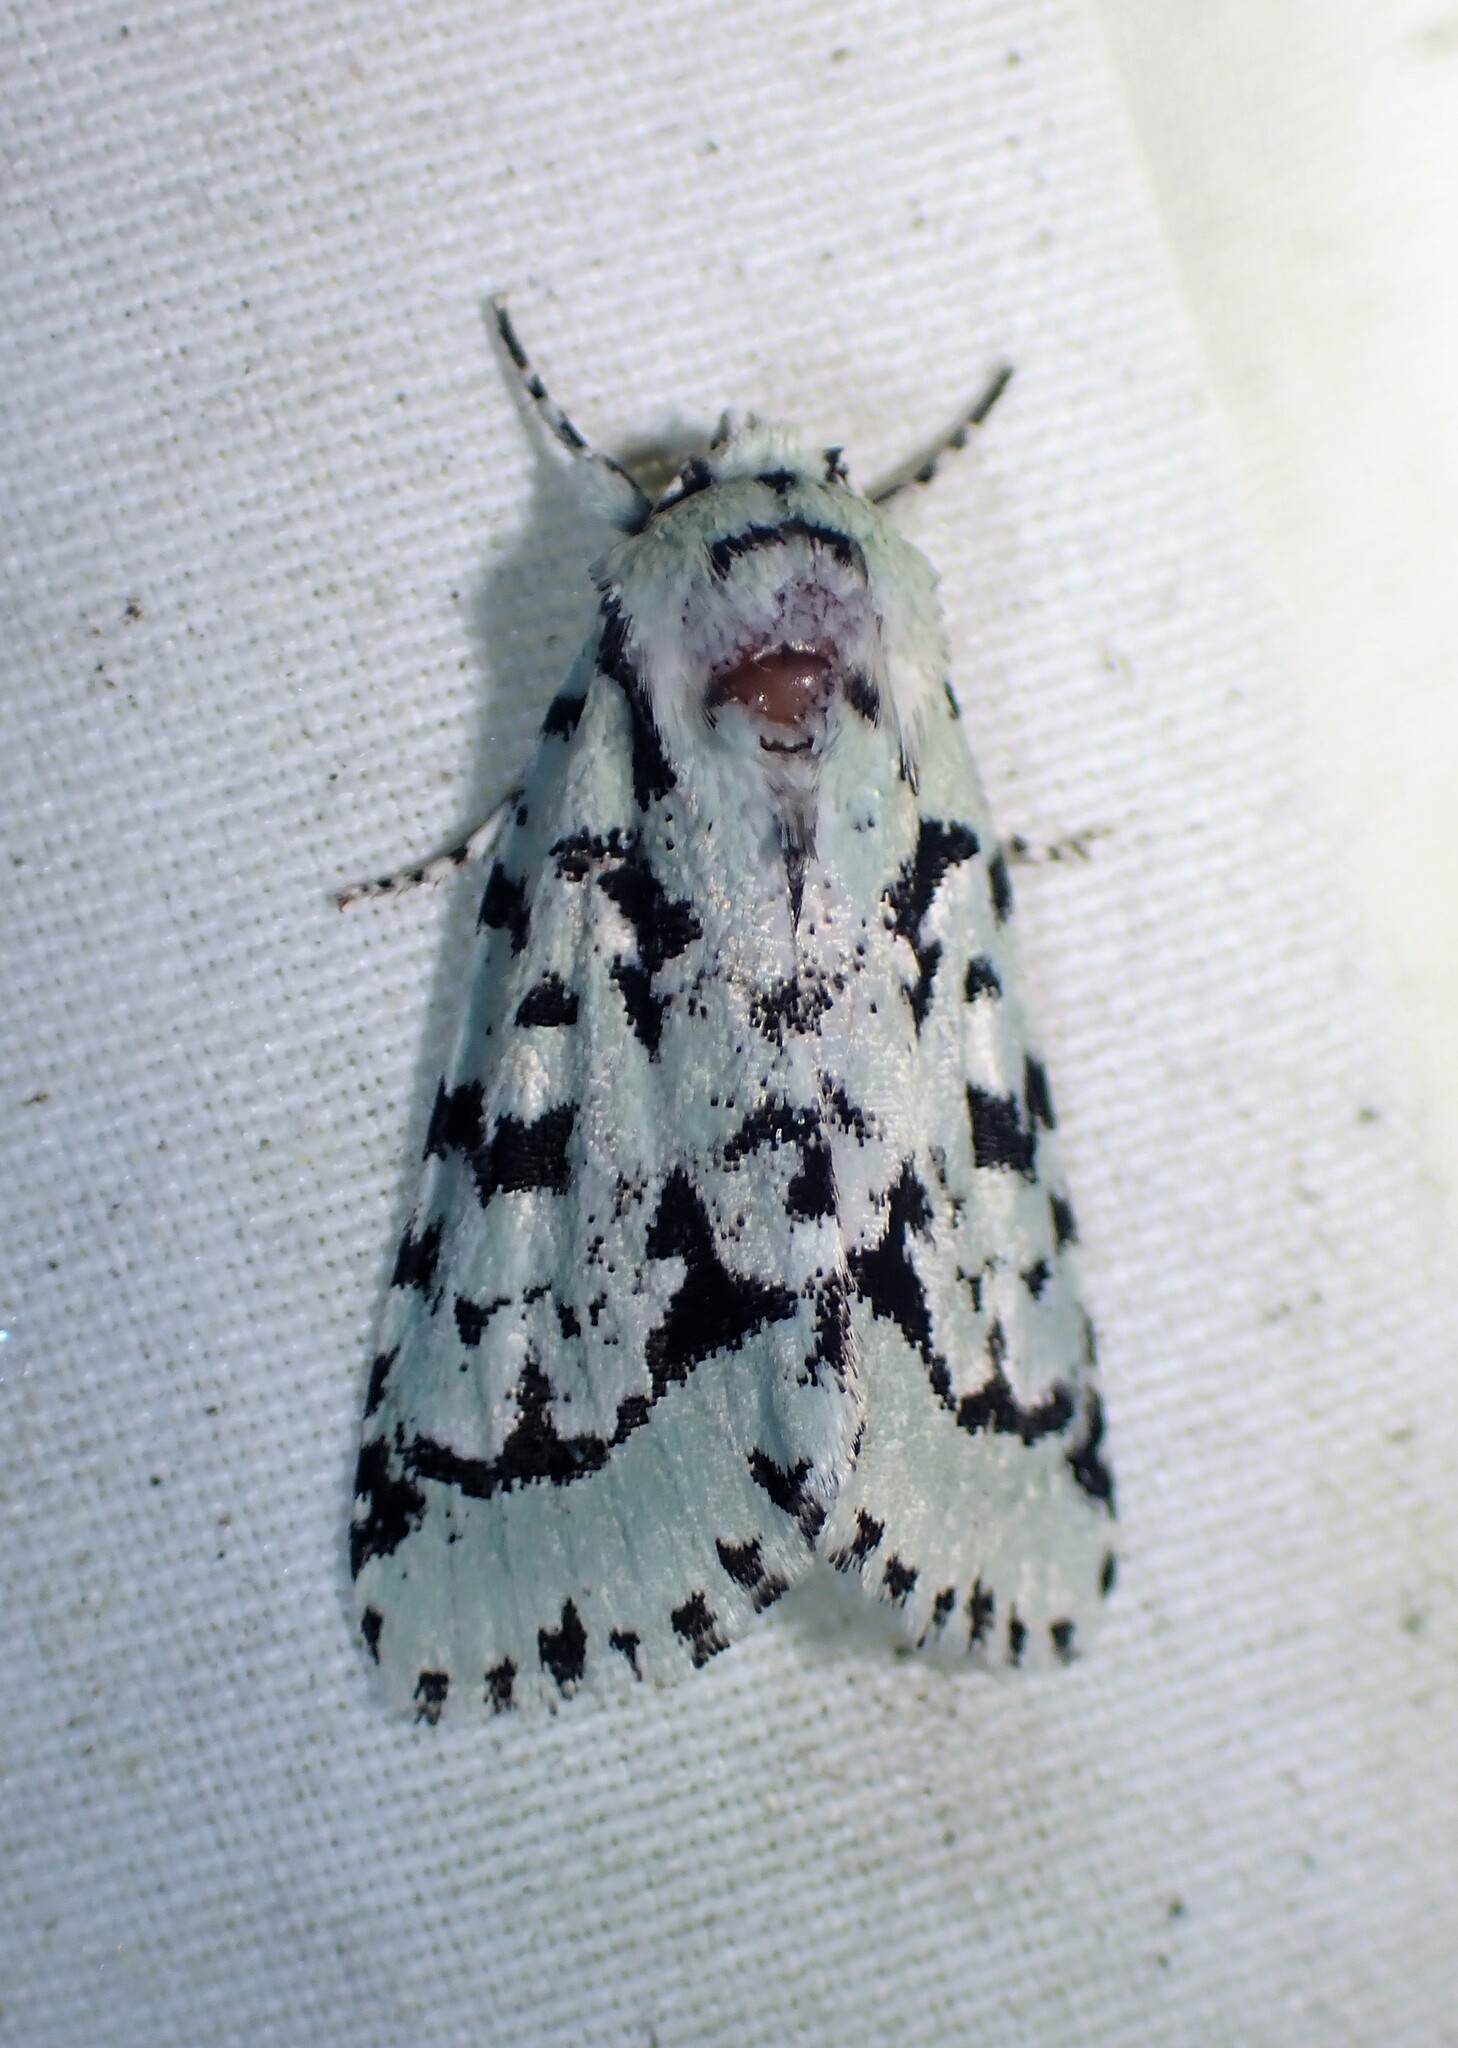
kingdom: Animalia
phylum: Arthropoda
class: Insecta
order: Lepidoptera
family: Noctuidae
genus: Acronicta
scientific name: Acronicta fallax
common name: Green marvel
